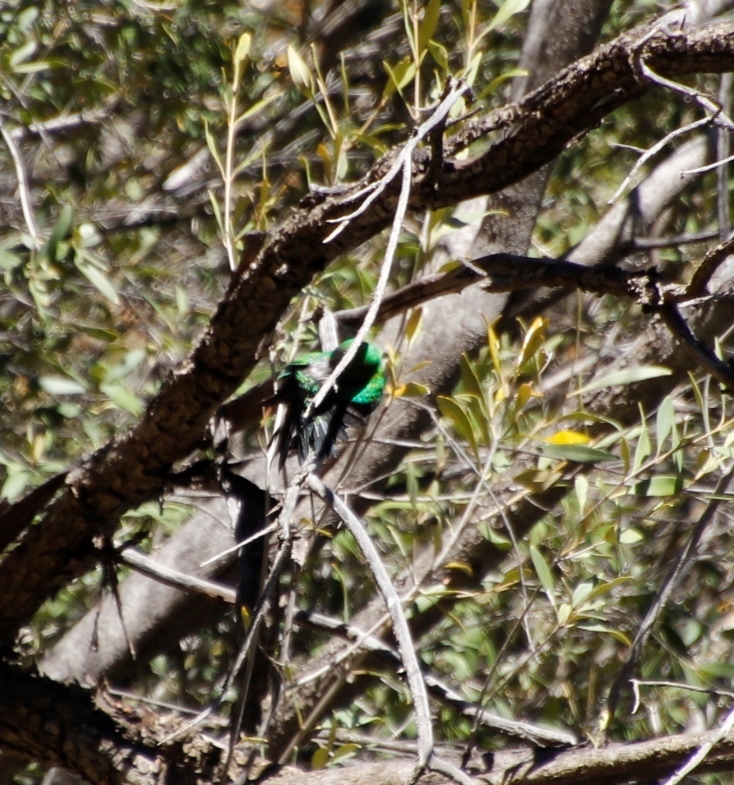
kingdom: Animalia
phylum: Chordata
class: Aves
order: Passeriformes
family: Nectariniidae
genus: Nectarinia
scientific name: Nectarinia famosa
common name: Malachite sunbird
